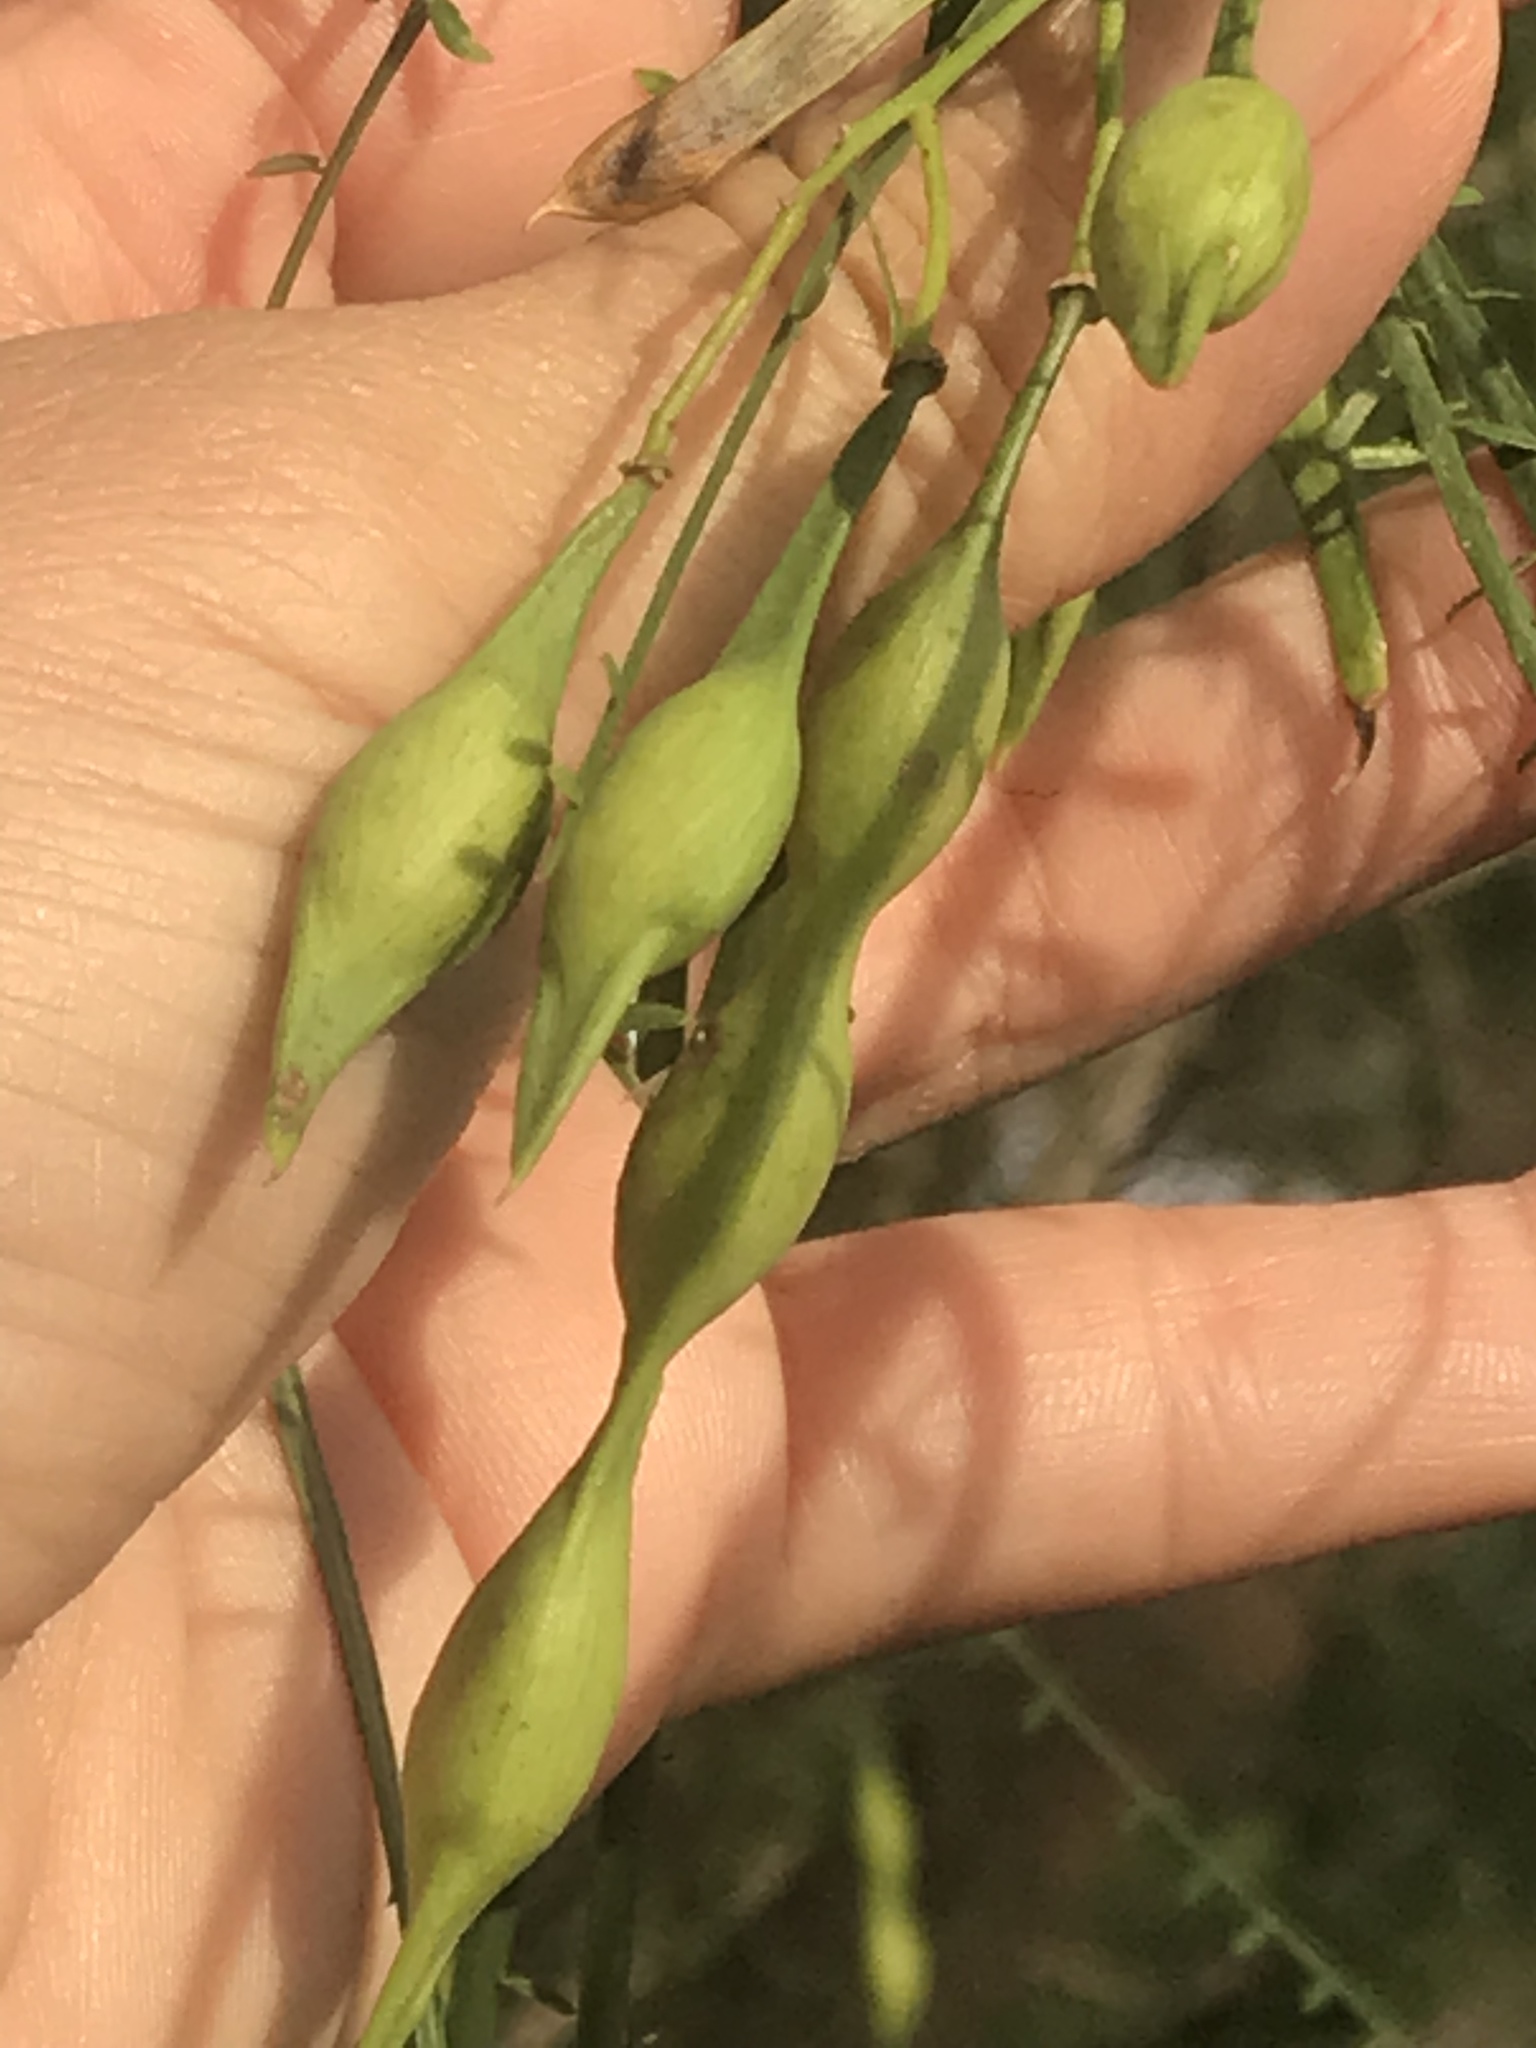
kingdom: Plantae
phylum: Tracheophyta
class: Magnoliopsida
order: Fabales
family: Fabaceae
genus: Parkinsonia
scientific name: Parkinsonia aculeata
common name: Jerusalem thorn
